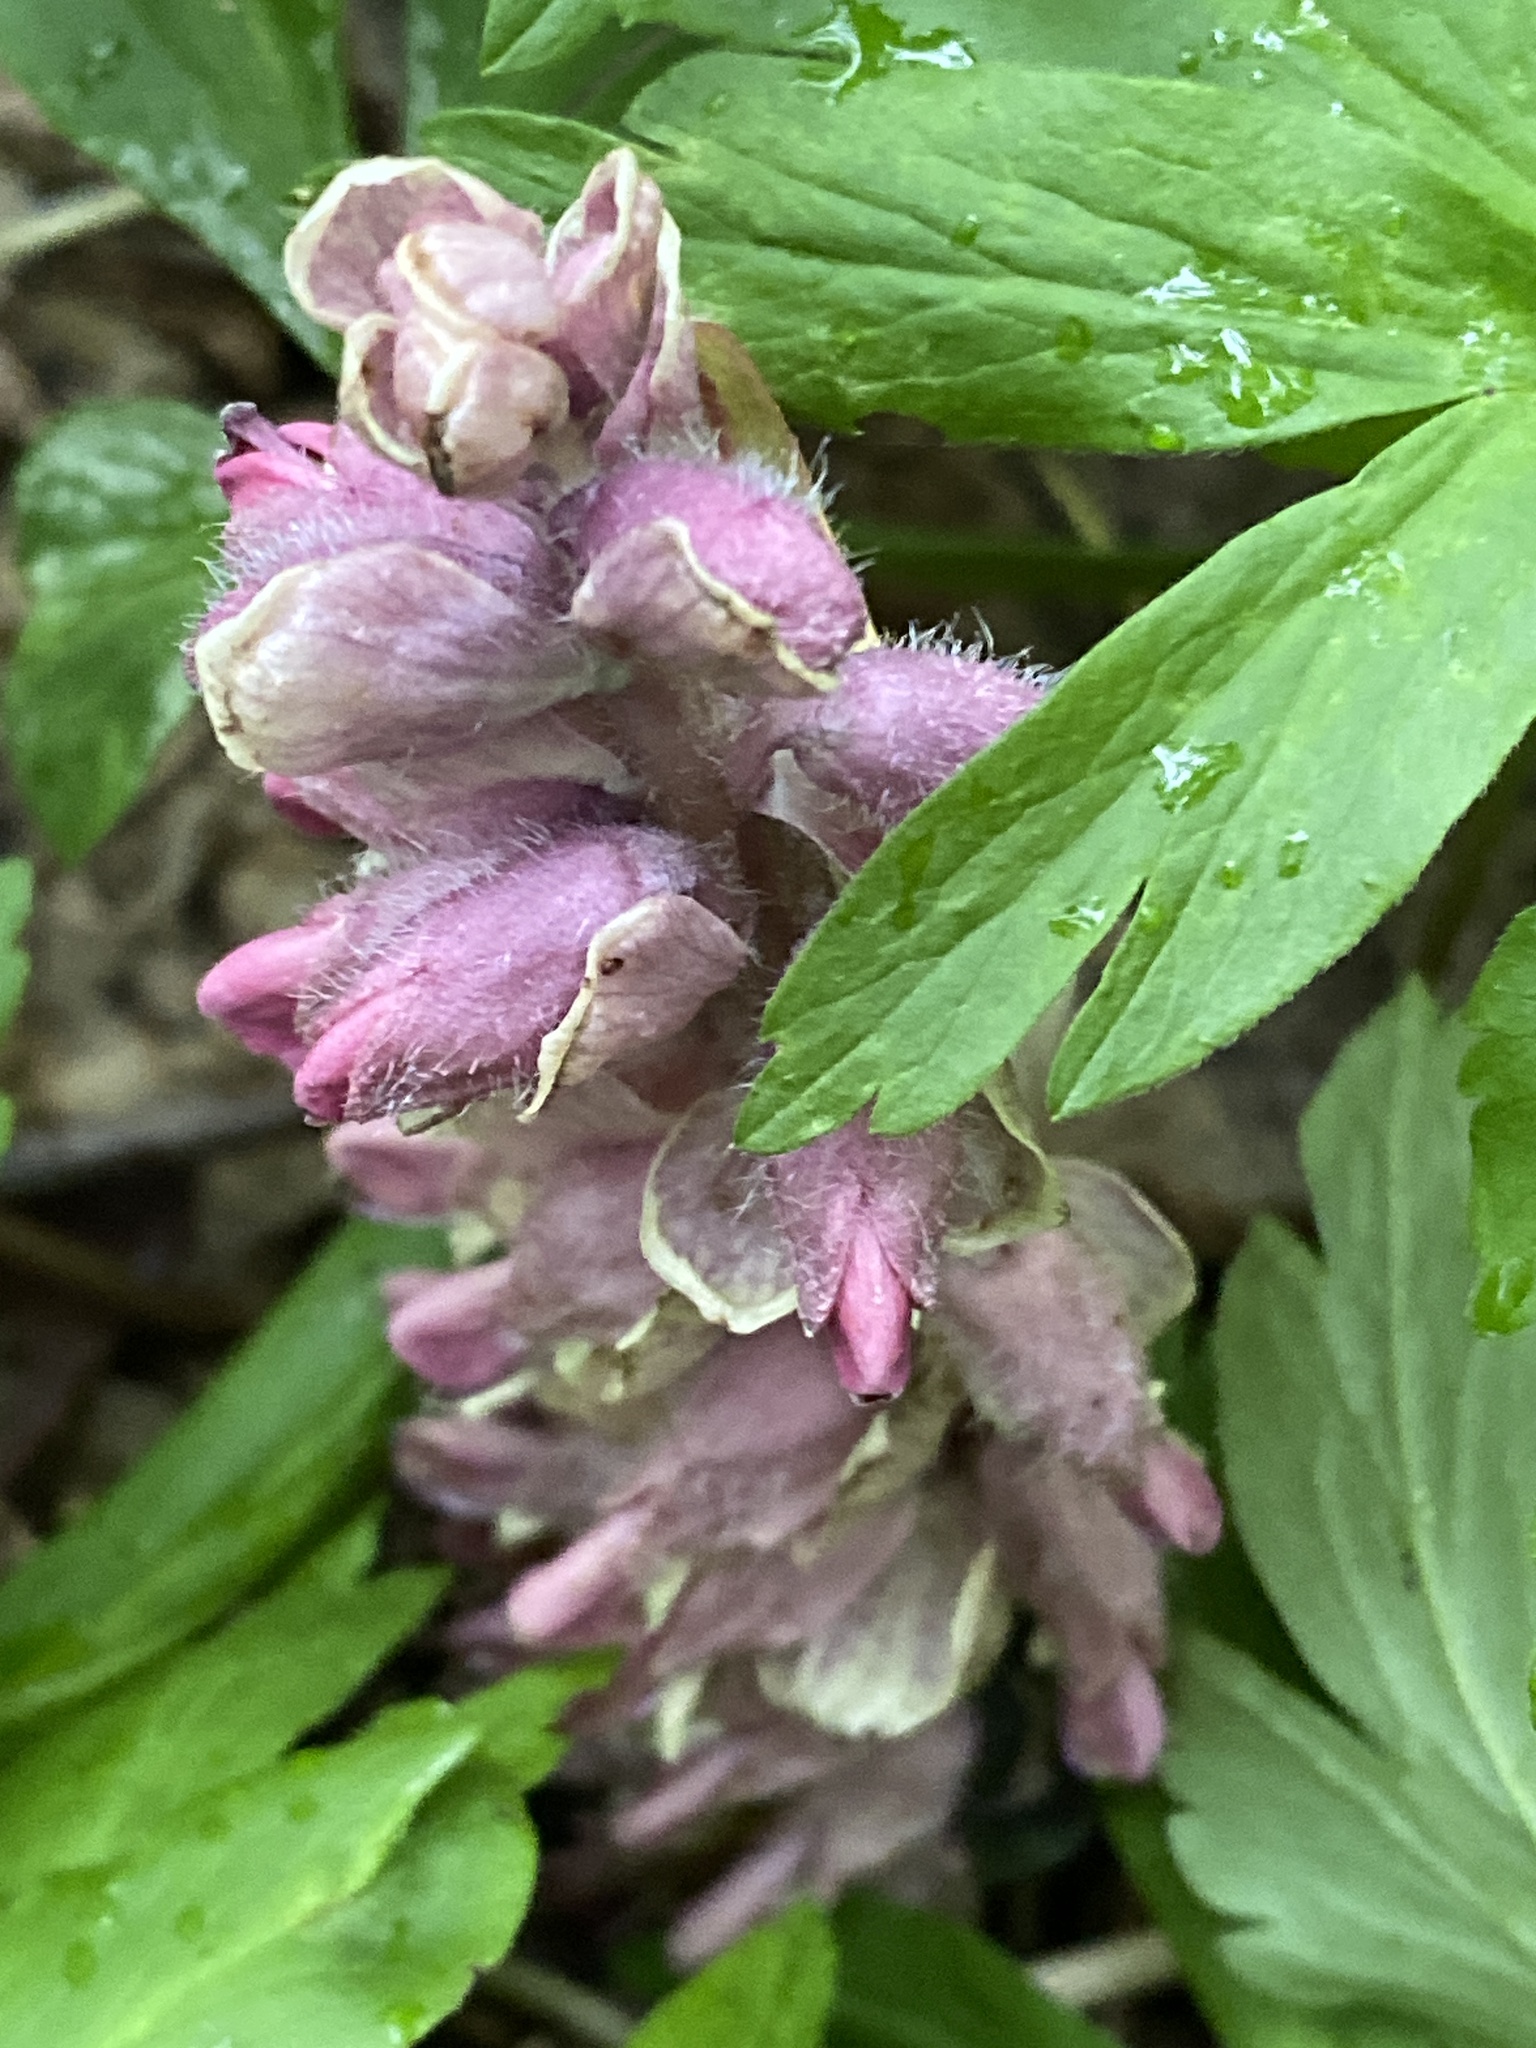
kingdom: Plantae
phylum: Tracheophyta
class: Magnoliopsida
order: Lamiales
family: Orobanchaceae
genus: Lathraea
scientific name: Lathraea squamaria
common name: Toothwort
